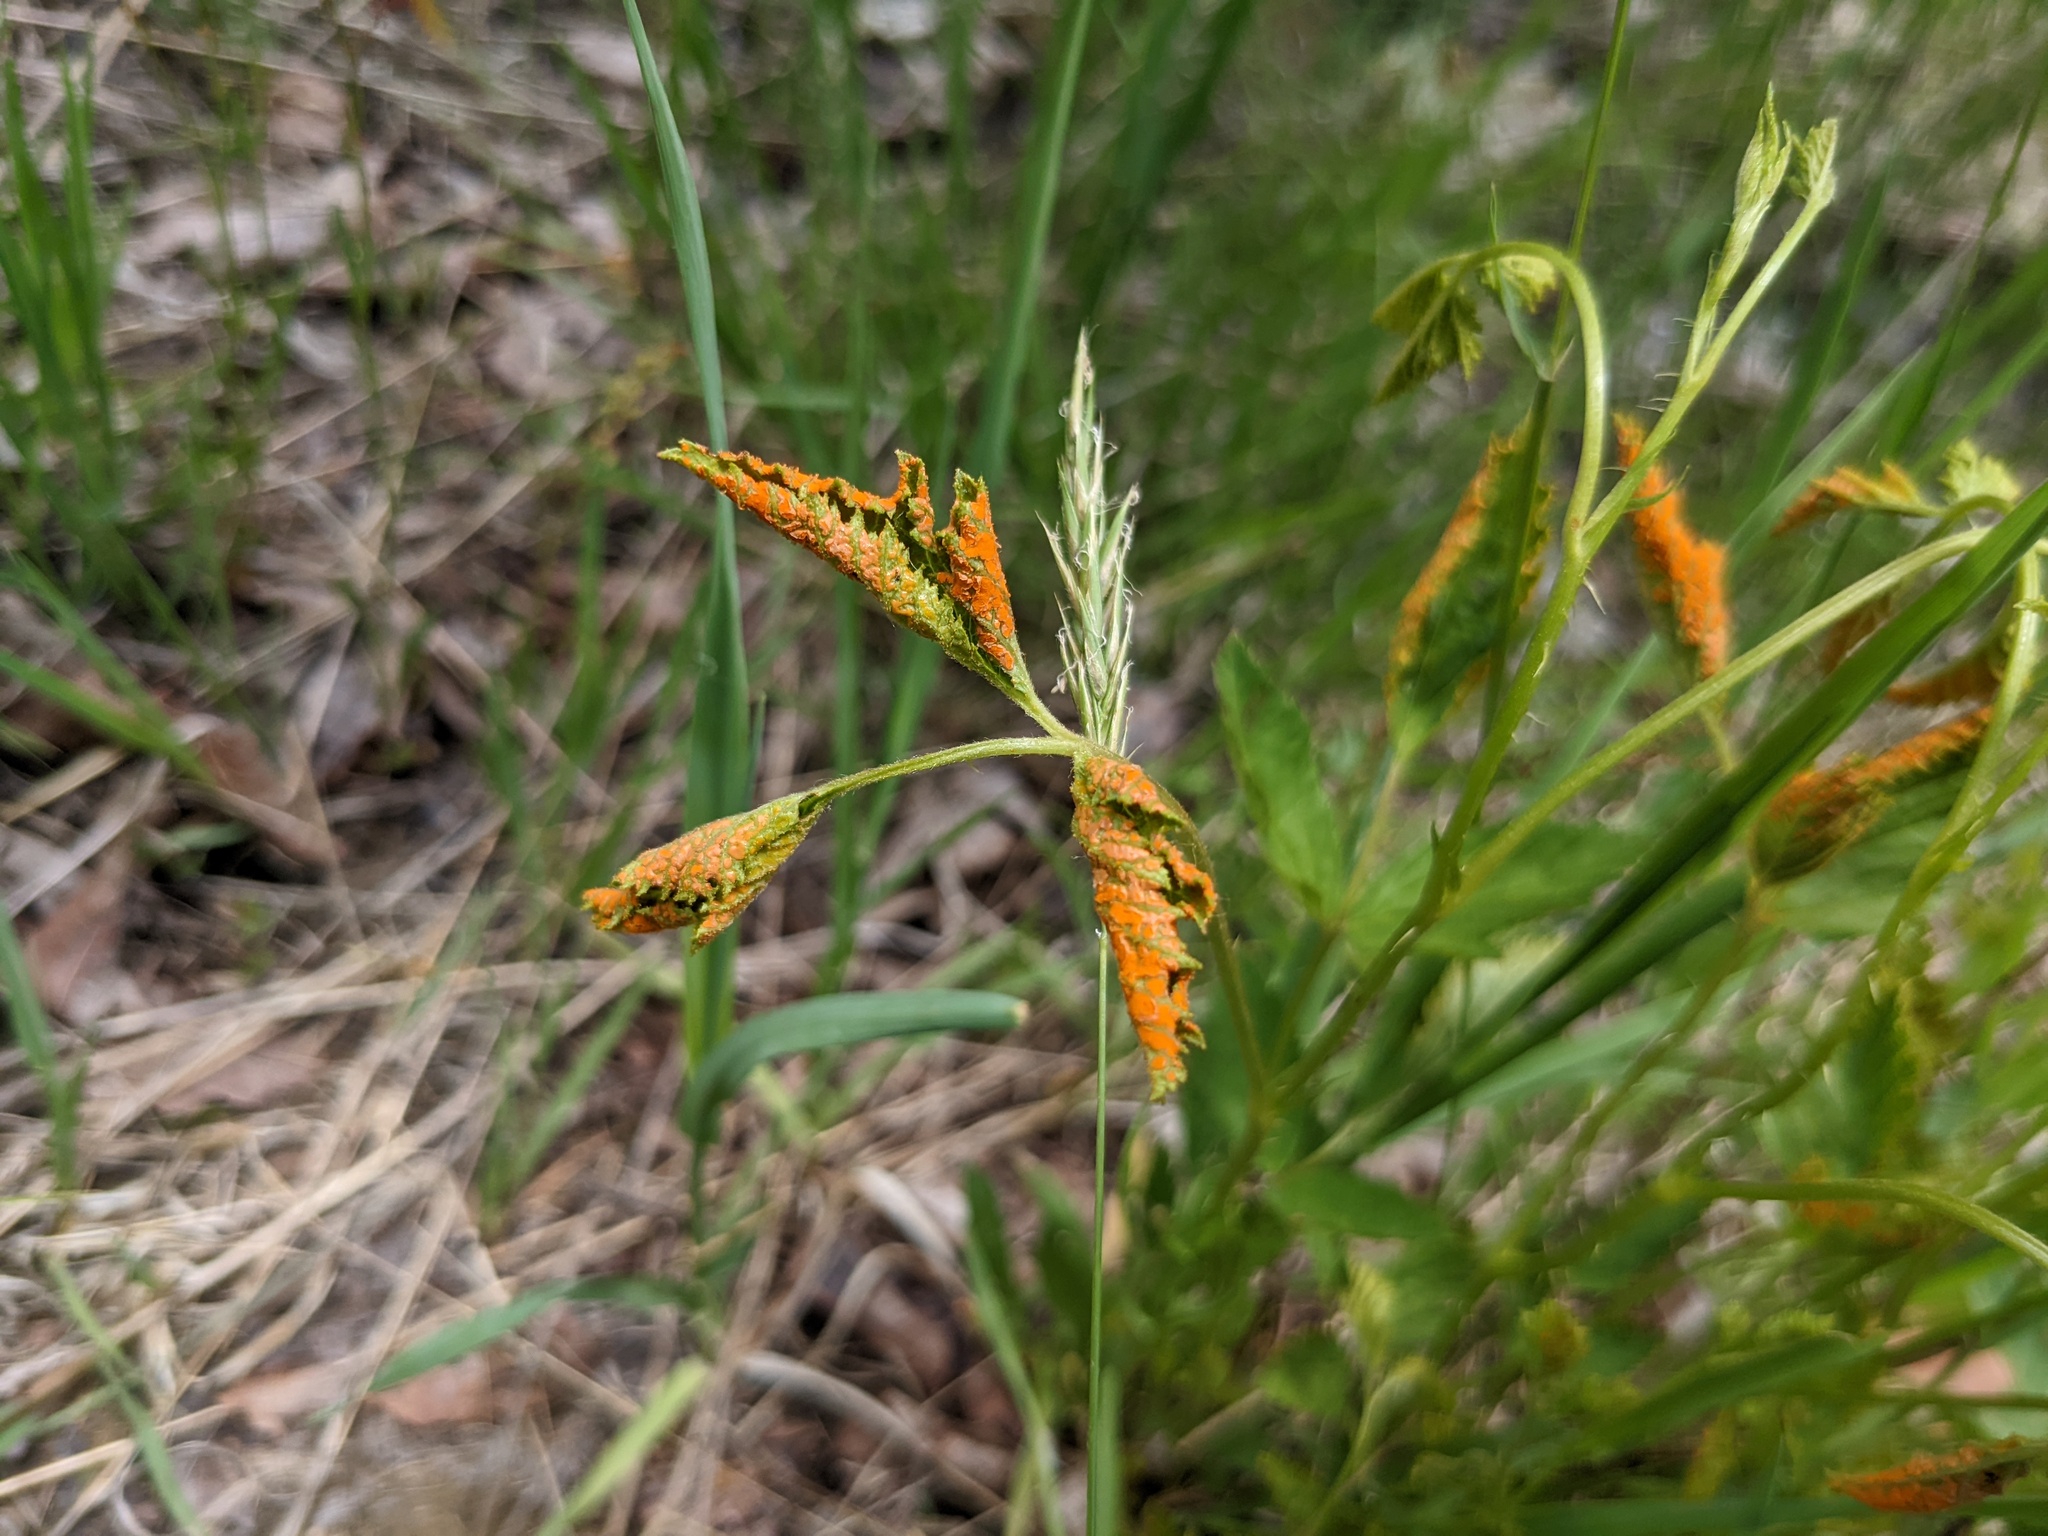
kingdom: Fungi
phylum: Basidiomycota
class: Pucciniomycetes
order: Pucciniales
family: Phragmidiaceae
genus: Arthuriomyces
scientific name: Arthuriomyces peckianus
